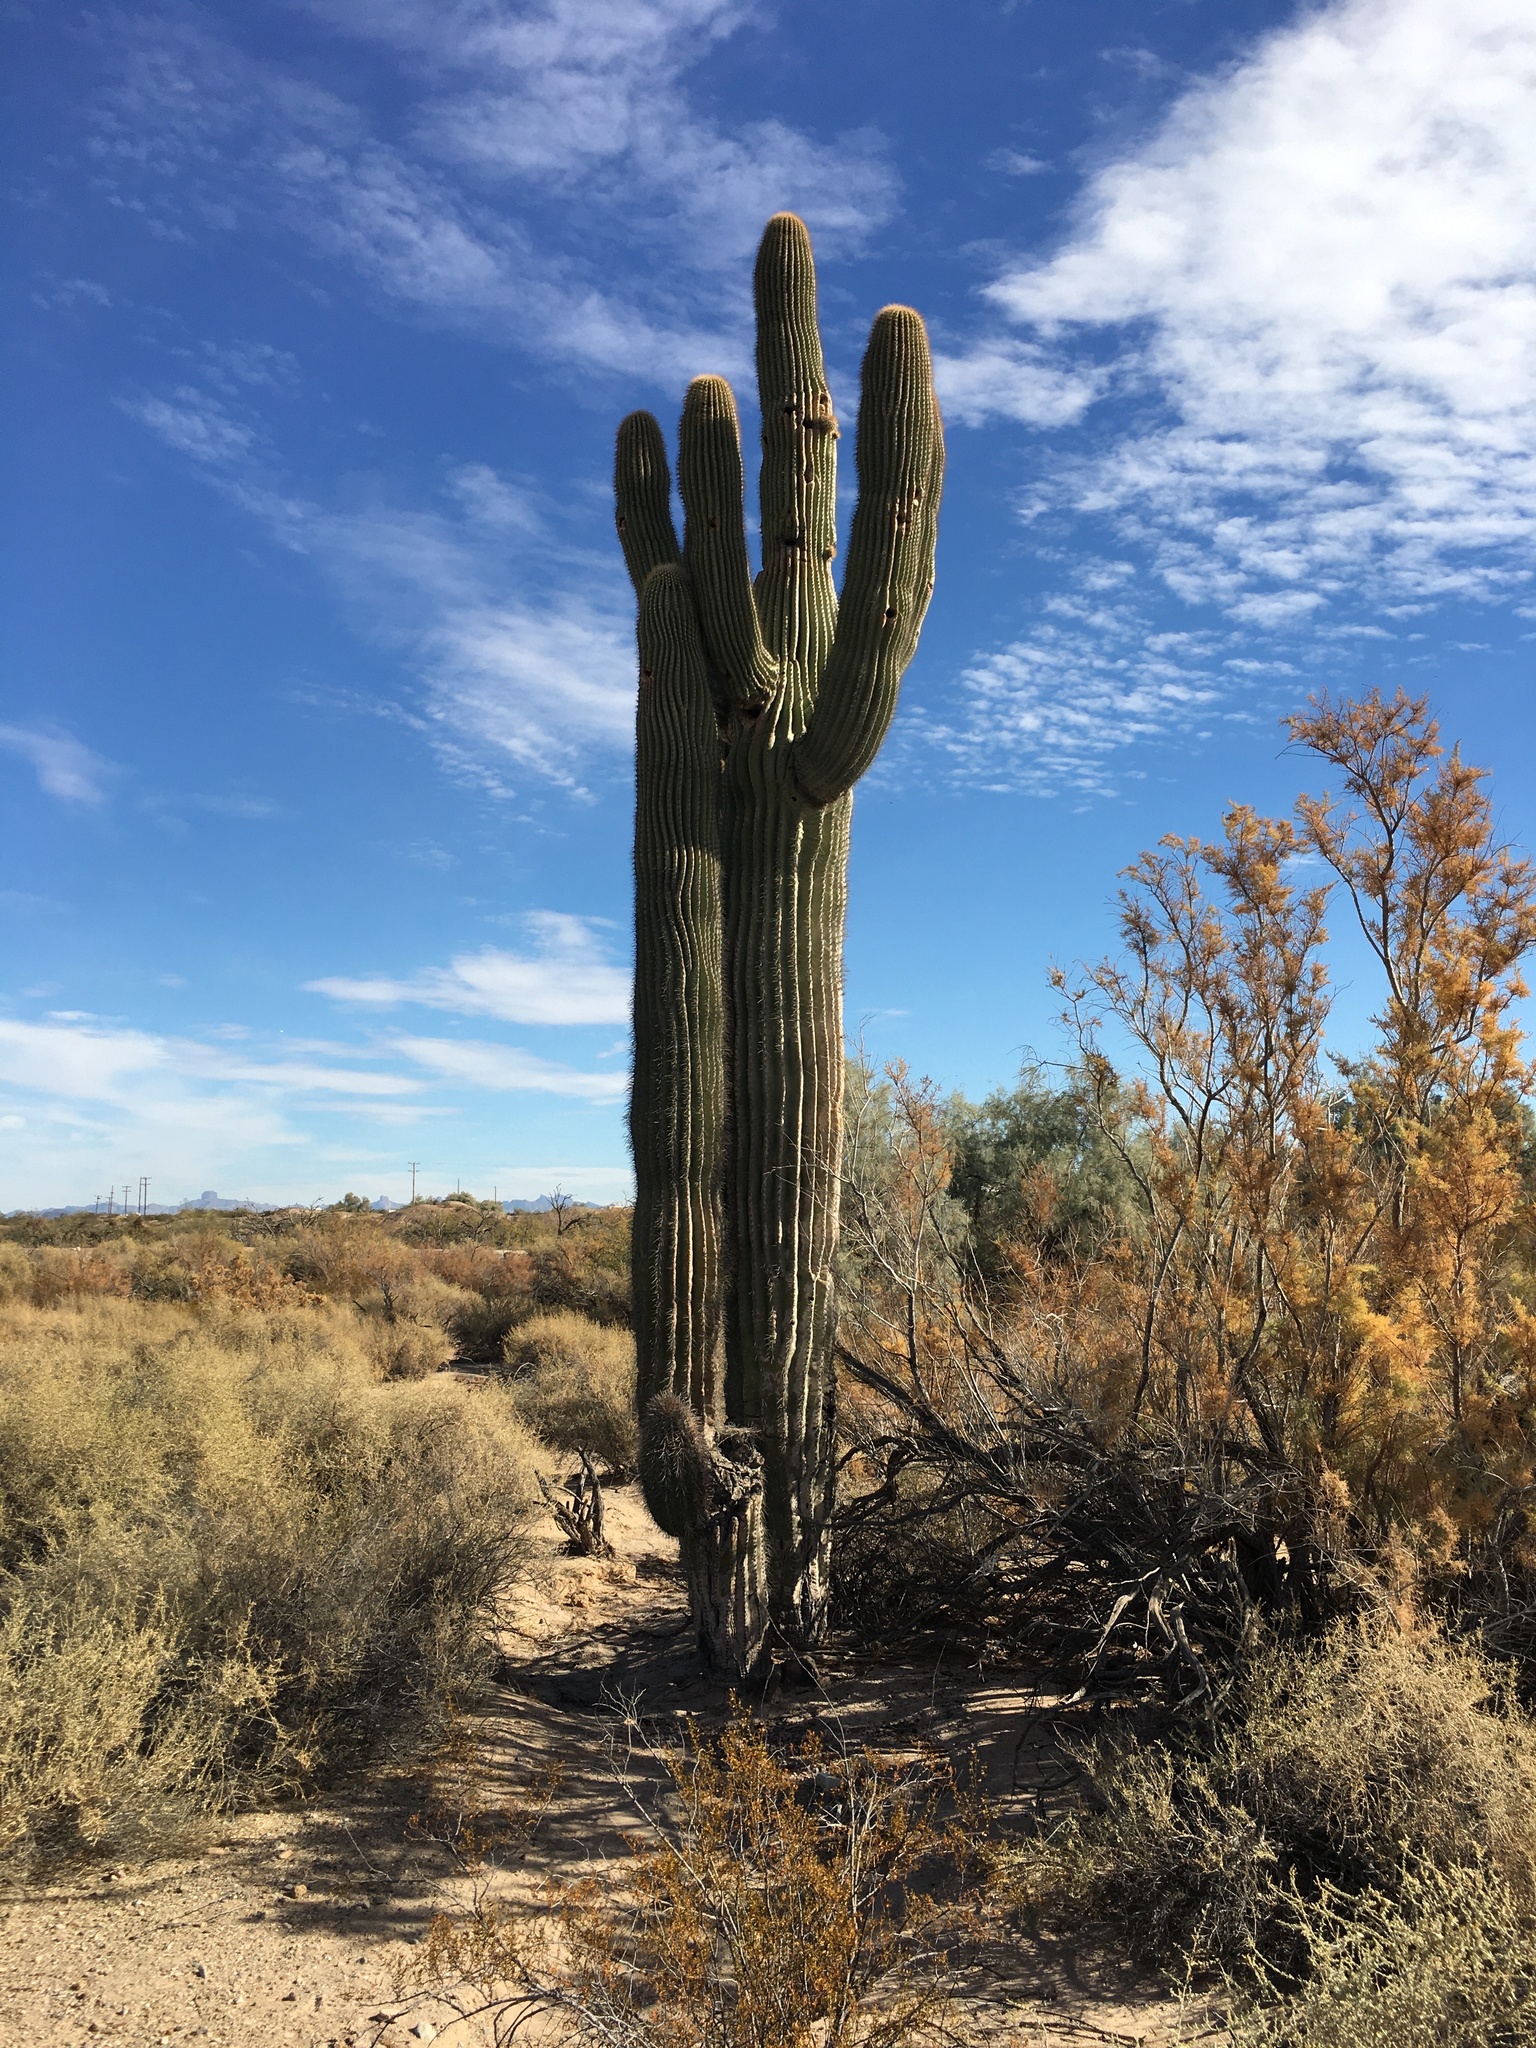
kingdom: Plantae
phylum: Tracheophyta
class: Magnoliopsida
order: Caryophyllales
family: Cactaceae
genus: Carnegiea
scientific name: Carnegiea gigantea
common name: Saguaro
